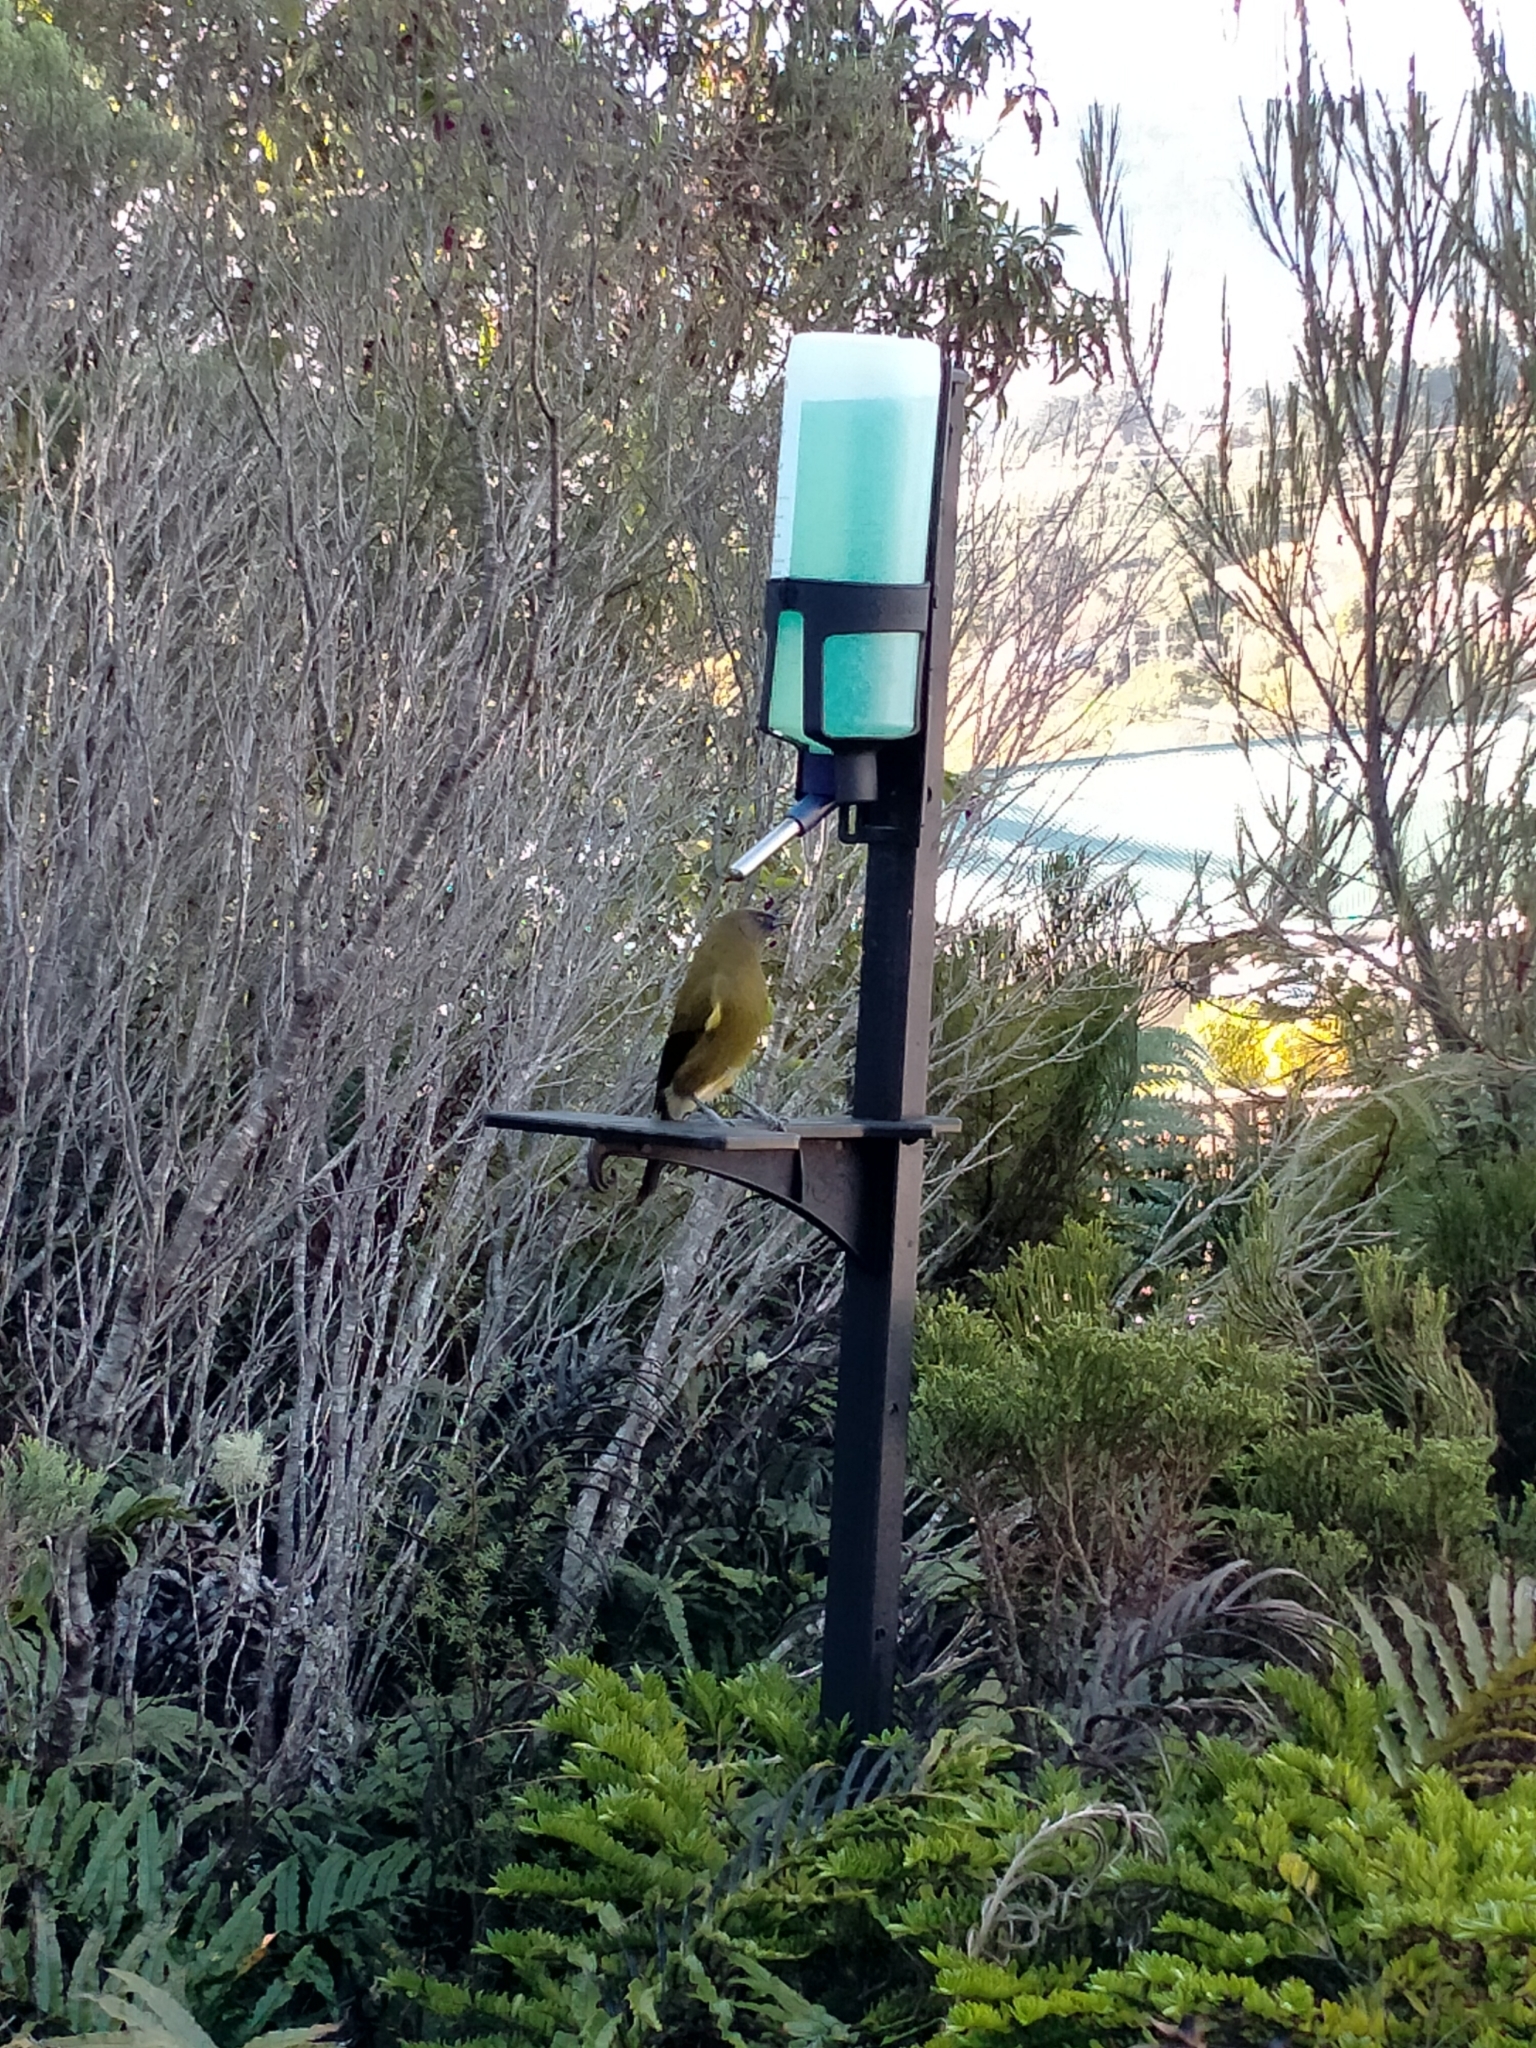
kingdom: Animalia
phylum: Chordata
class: Aves
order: Passeriformes
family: Meliphagidae
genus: Anthornis
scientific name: Anthornis melanura
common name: New zealand bellbird
